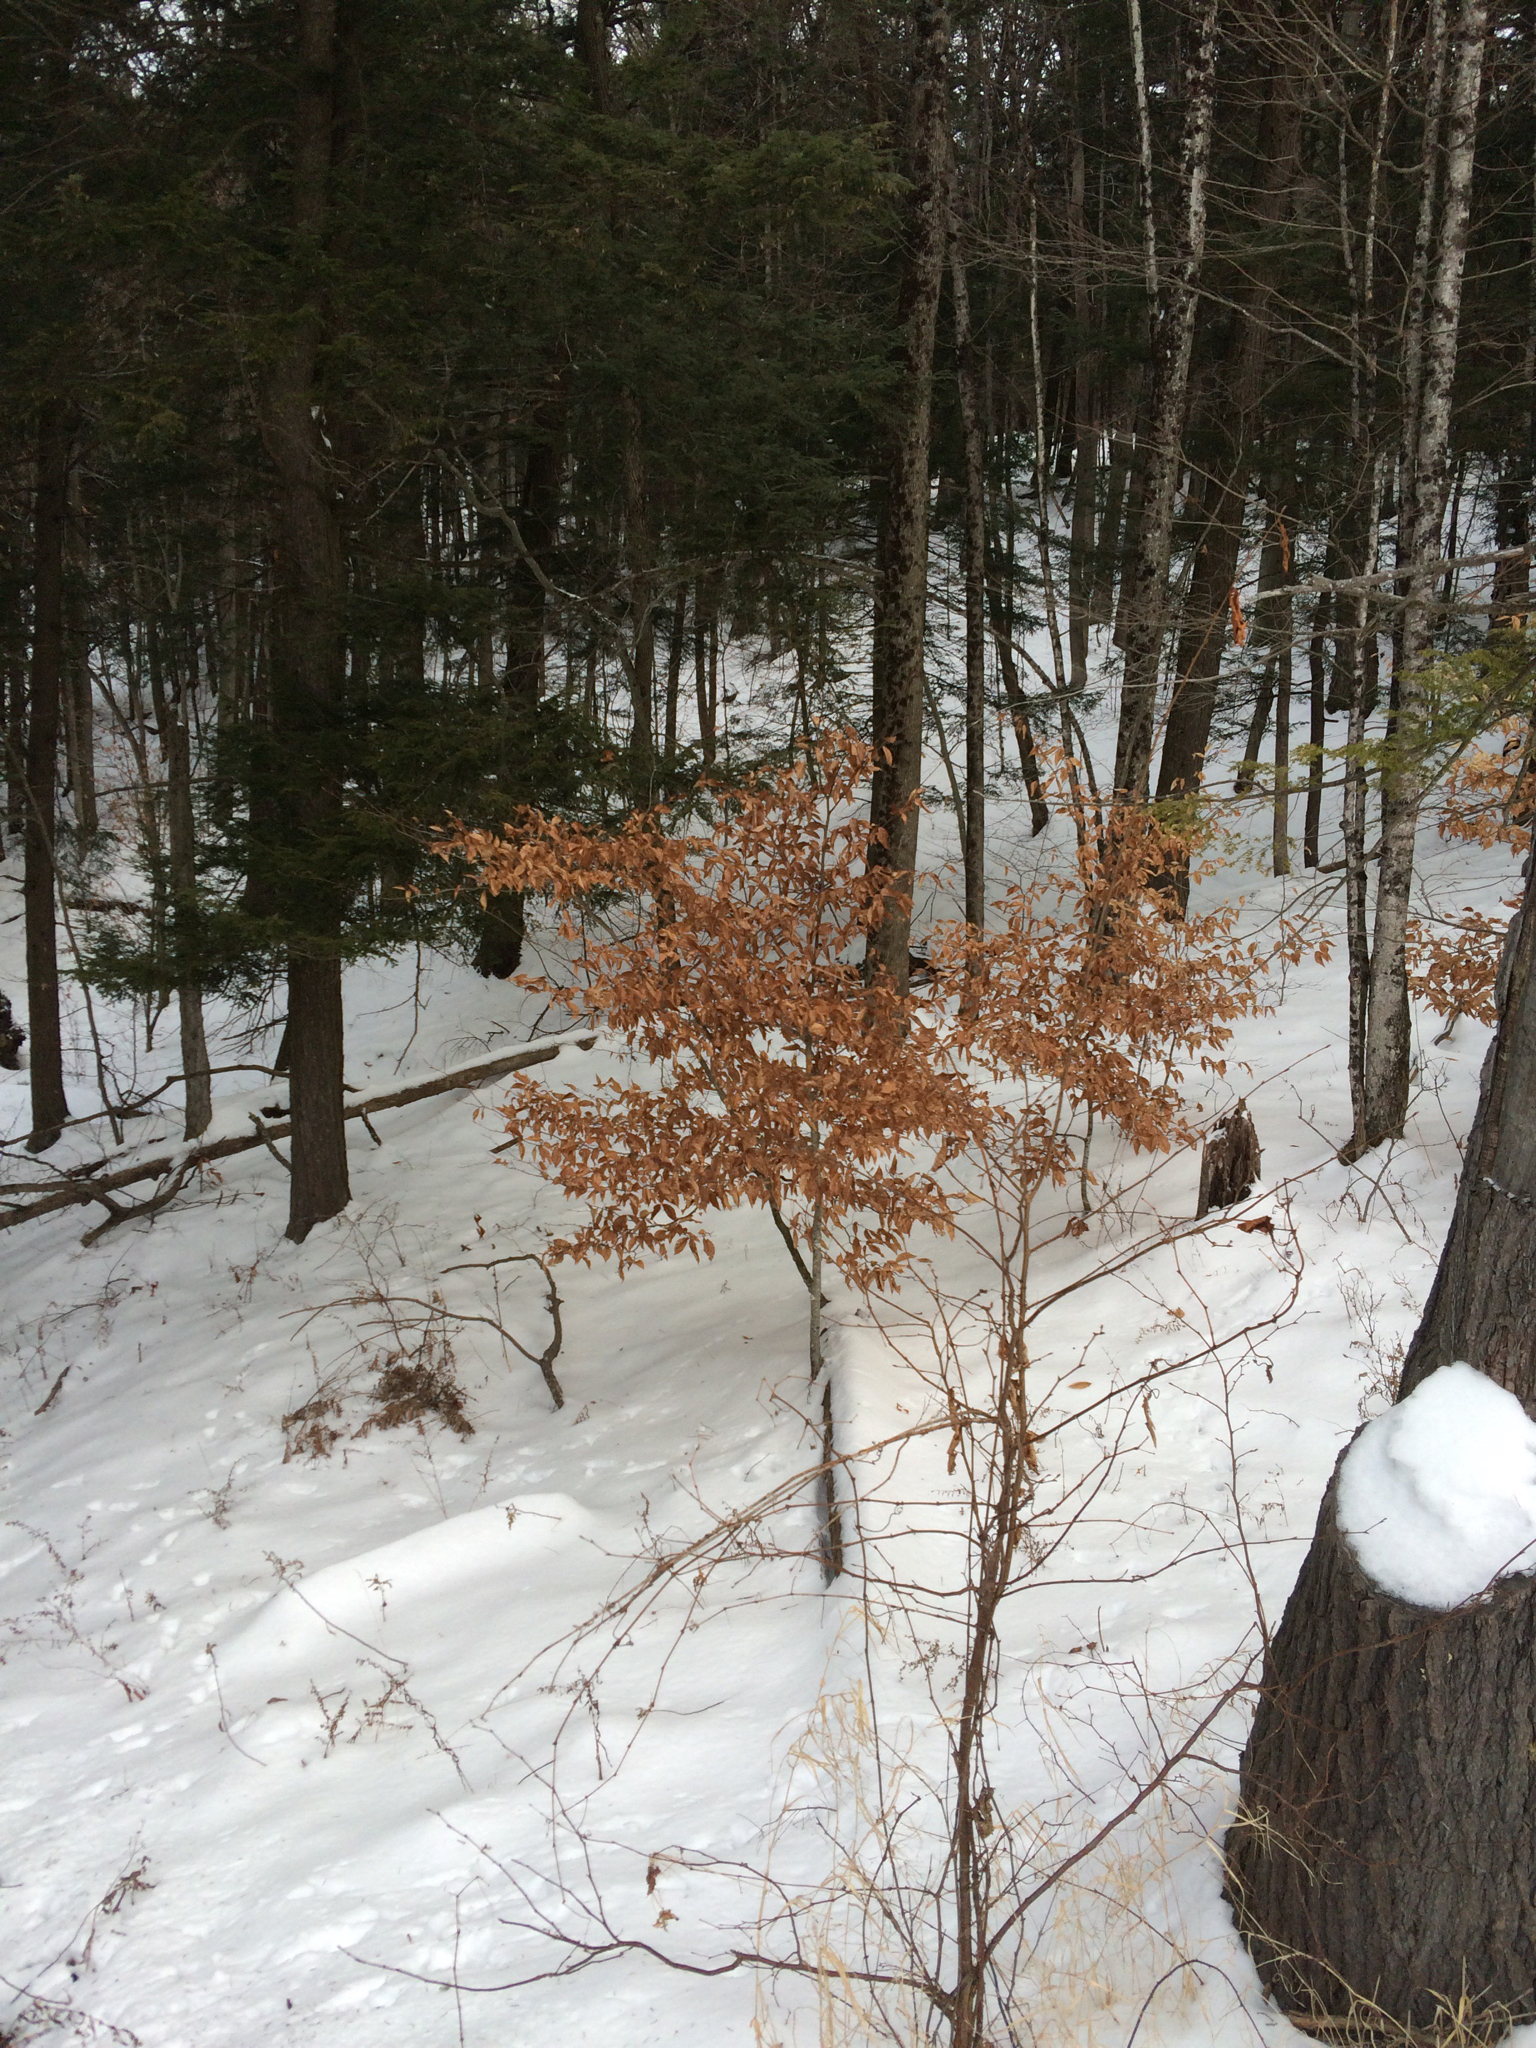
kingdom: Plantae
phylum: Tracheophyta
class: Magnoliopsida
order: Fagales
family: Fagaceae
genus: Fagus
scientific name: Fagus grandifolia
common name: American beech
